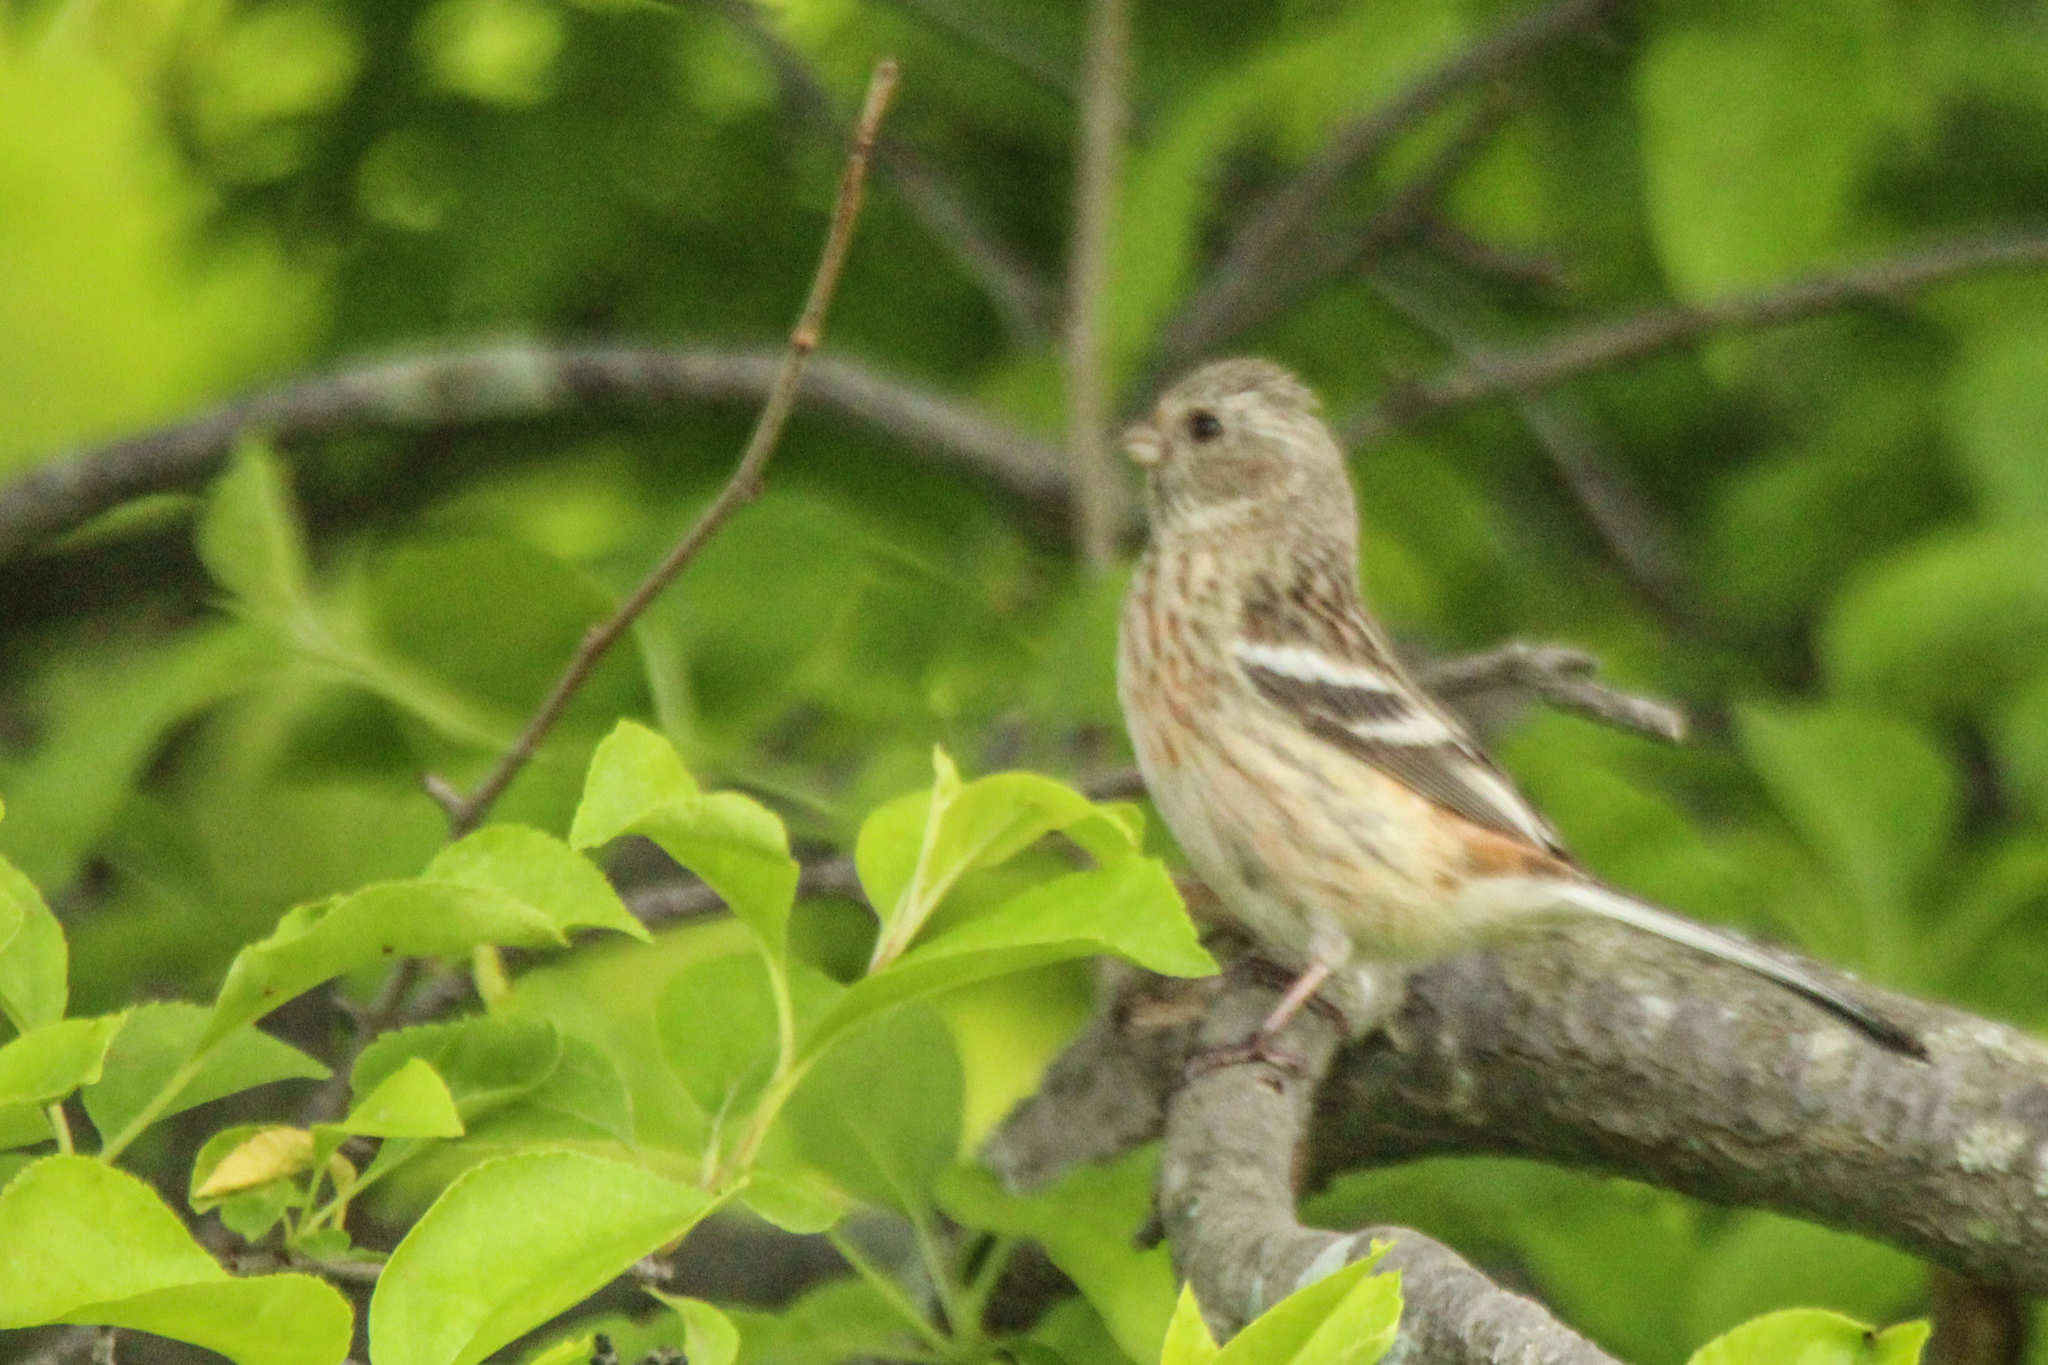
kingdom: Animalia
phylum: Chordata
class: Aves
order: Passeriformes
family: Fringillidae
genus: Carpodacus
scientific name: Carpodacus sibiricus
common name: Long-tailed rosefinch
